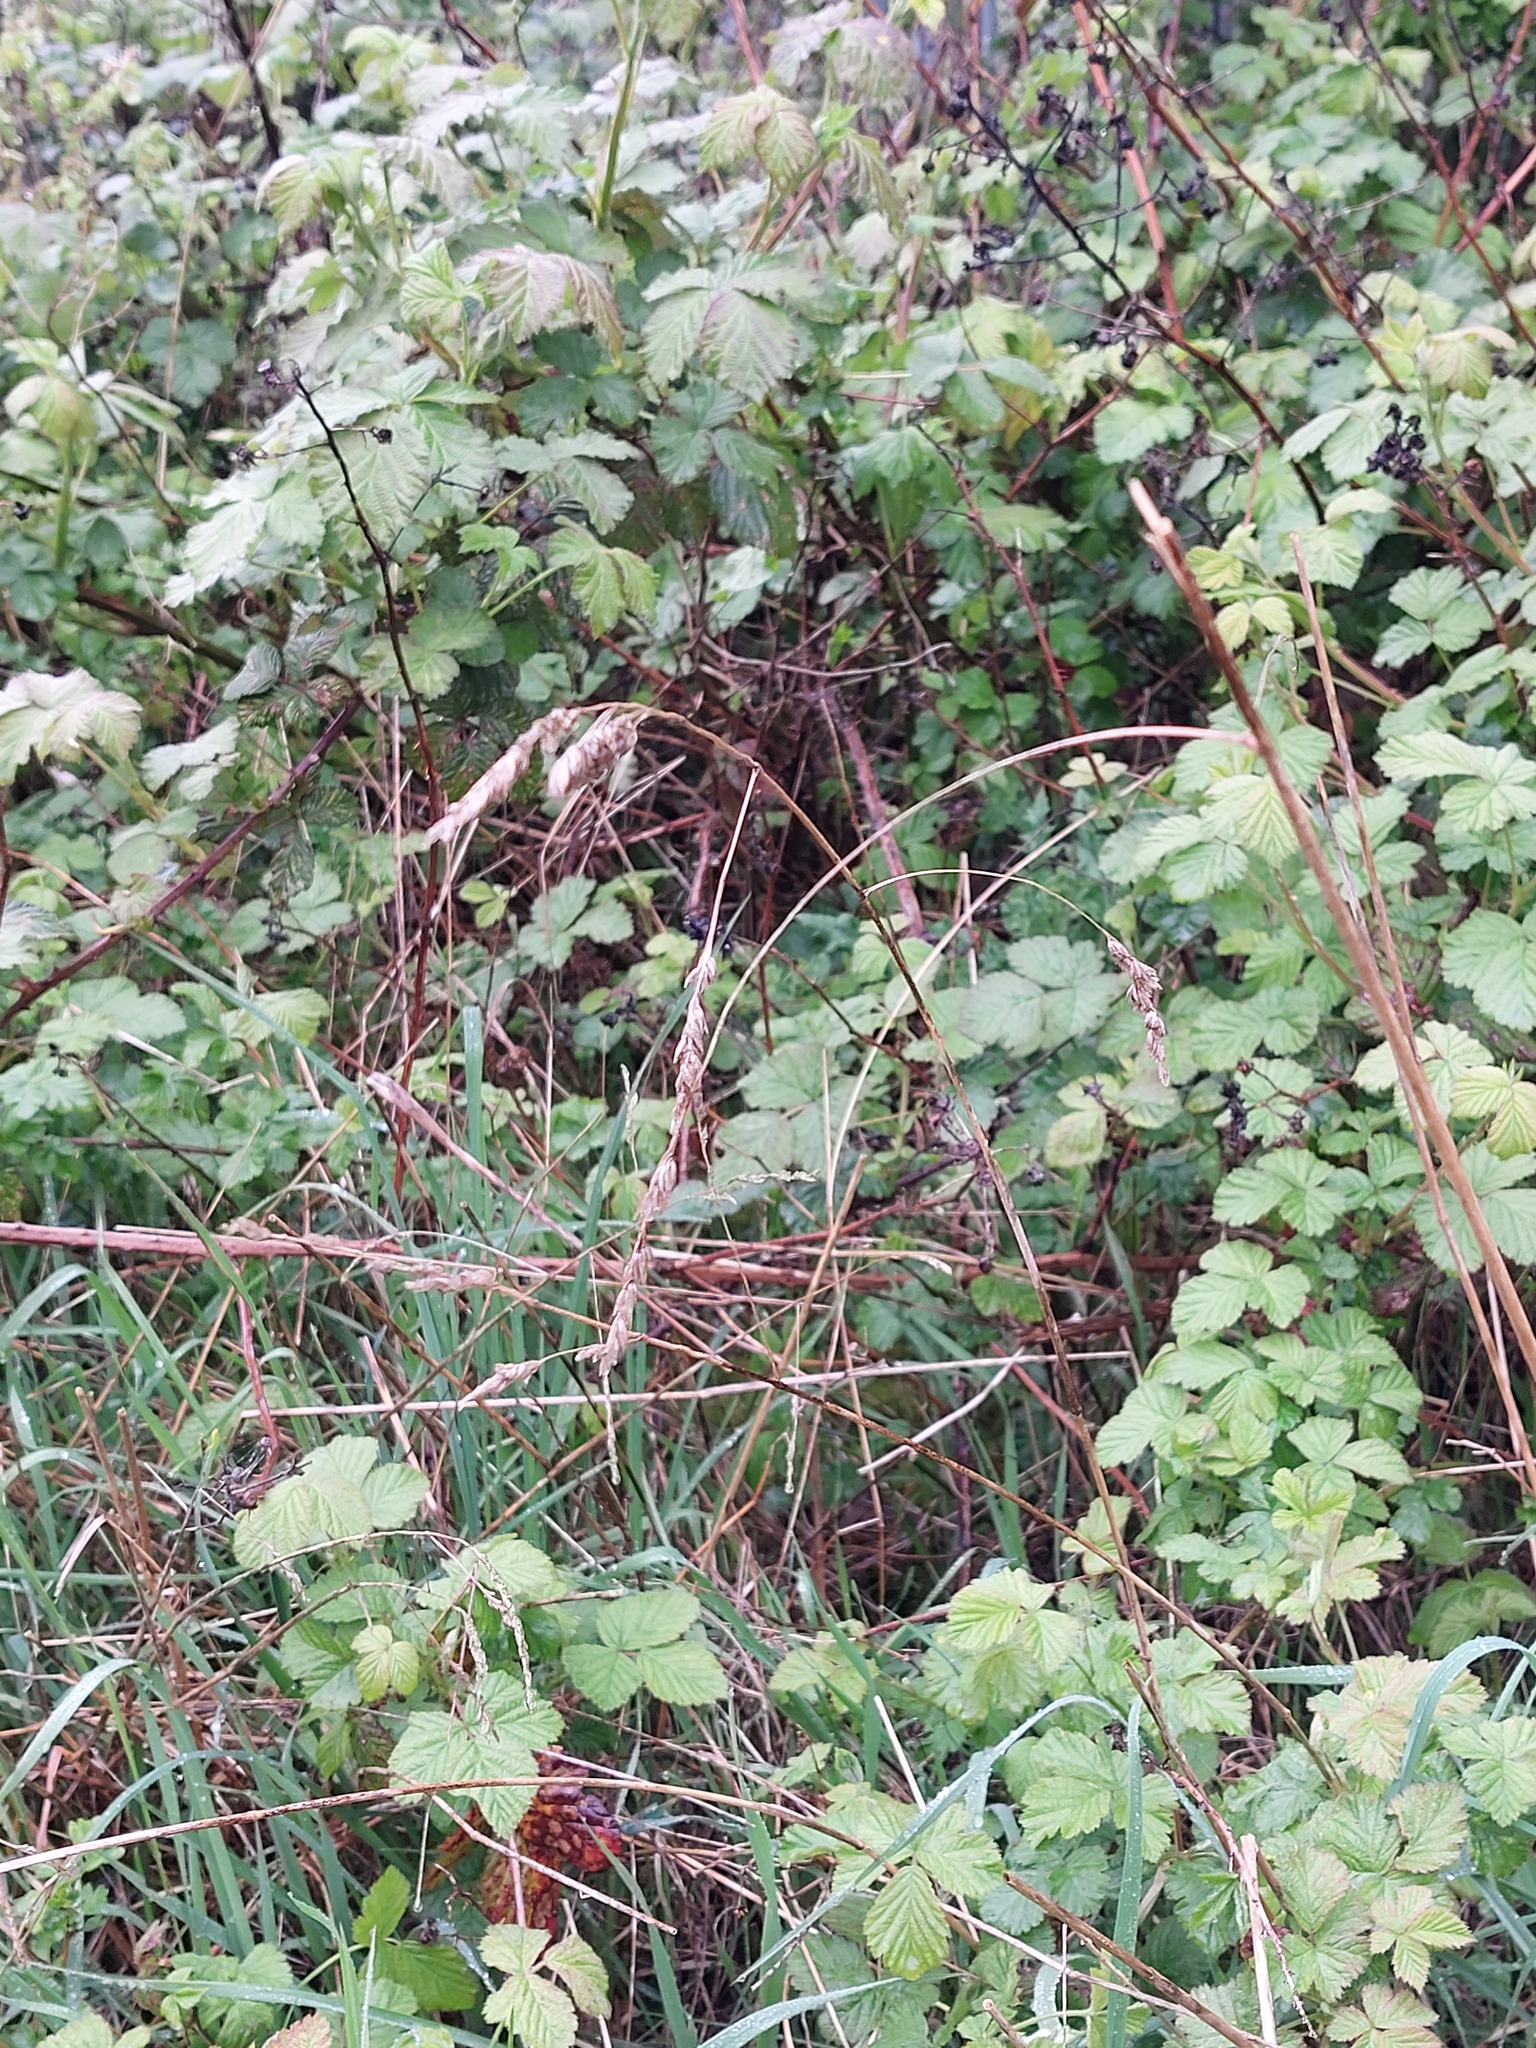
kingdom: Plantae
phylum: Tracheophyta
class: Liliopsida
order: Poales
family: Poaceae
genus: Dactylis
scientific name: Dactylis glomerata
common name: Orchardgrass
